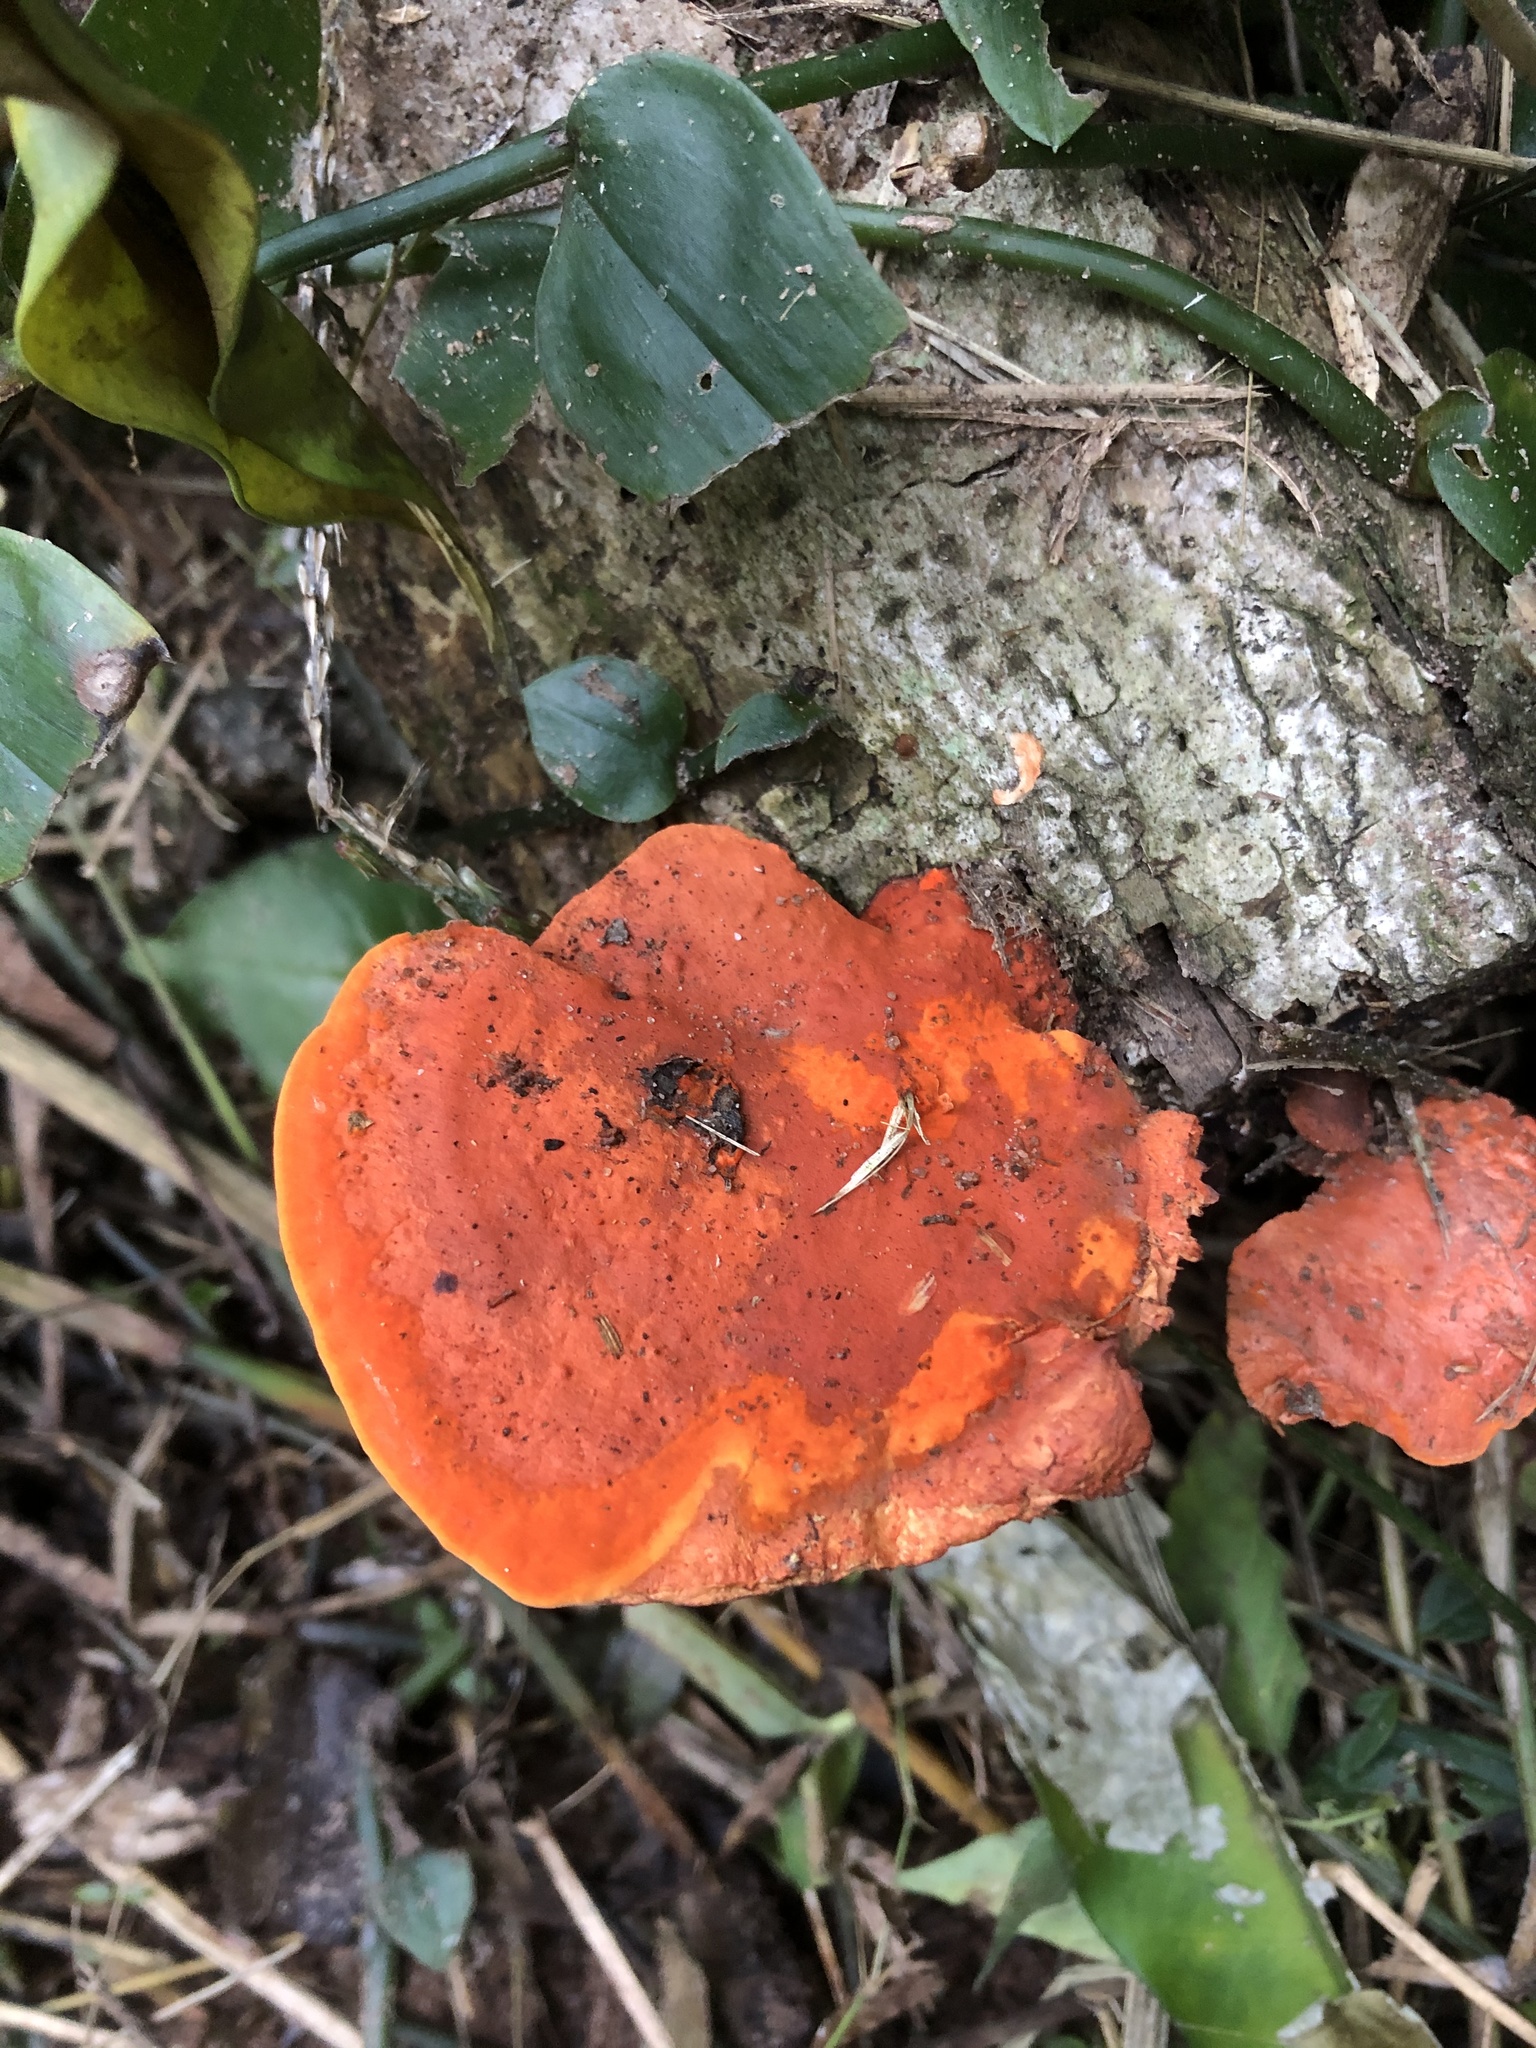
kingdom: Fungi
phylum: Basidiomycota
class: Agaricomycetes
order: Polyporales
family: Polyporaceae
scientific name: Polyporaceae
